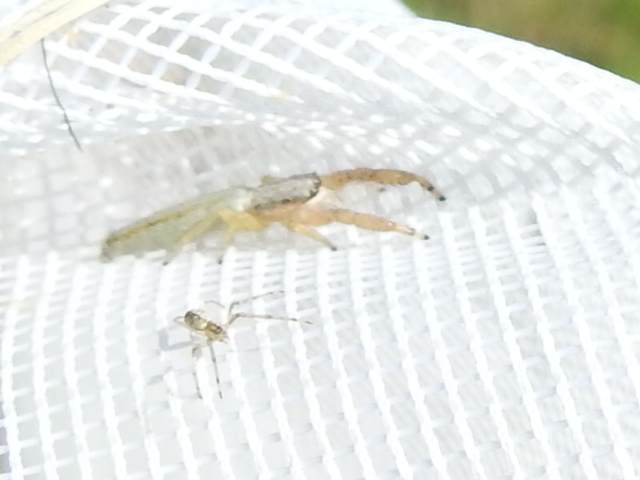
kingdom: Animalia
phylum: Arthropoda
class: Arachnida
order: Araneae
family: Salticidae
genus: Marpissa
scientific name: Marpissa pikei
